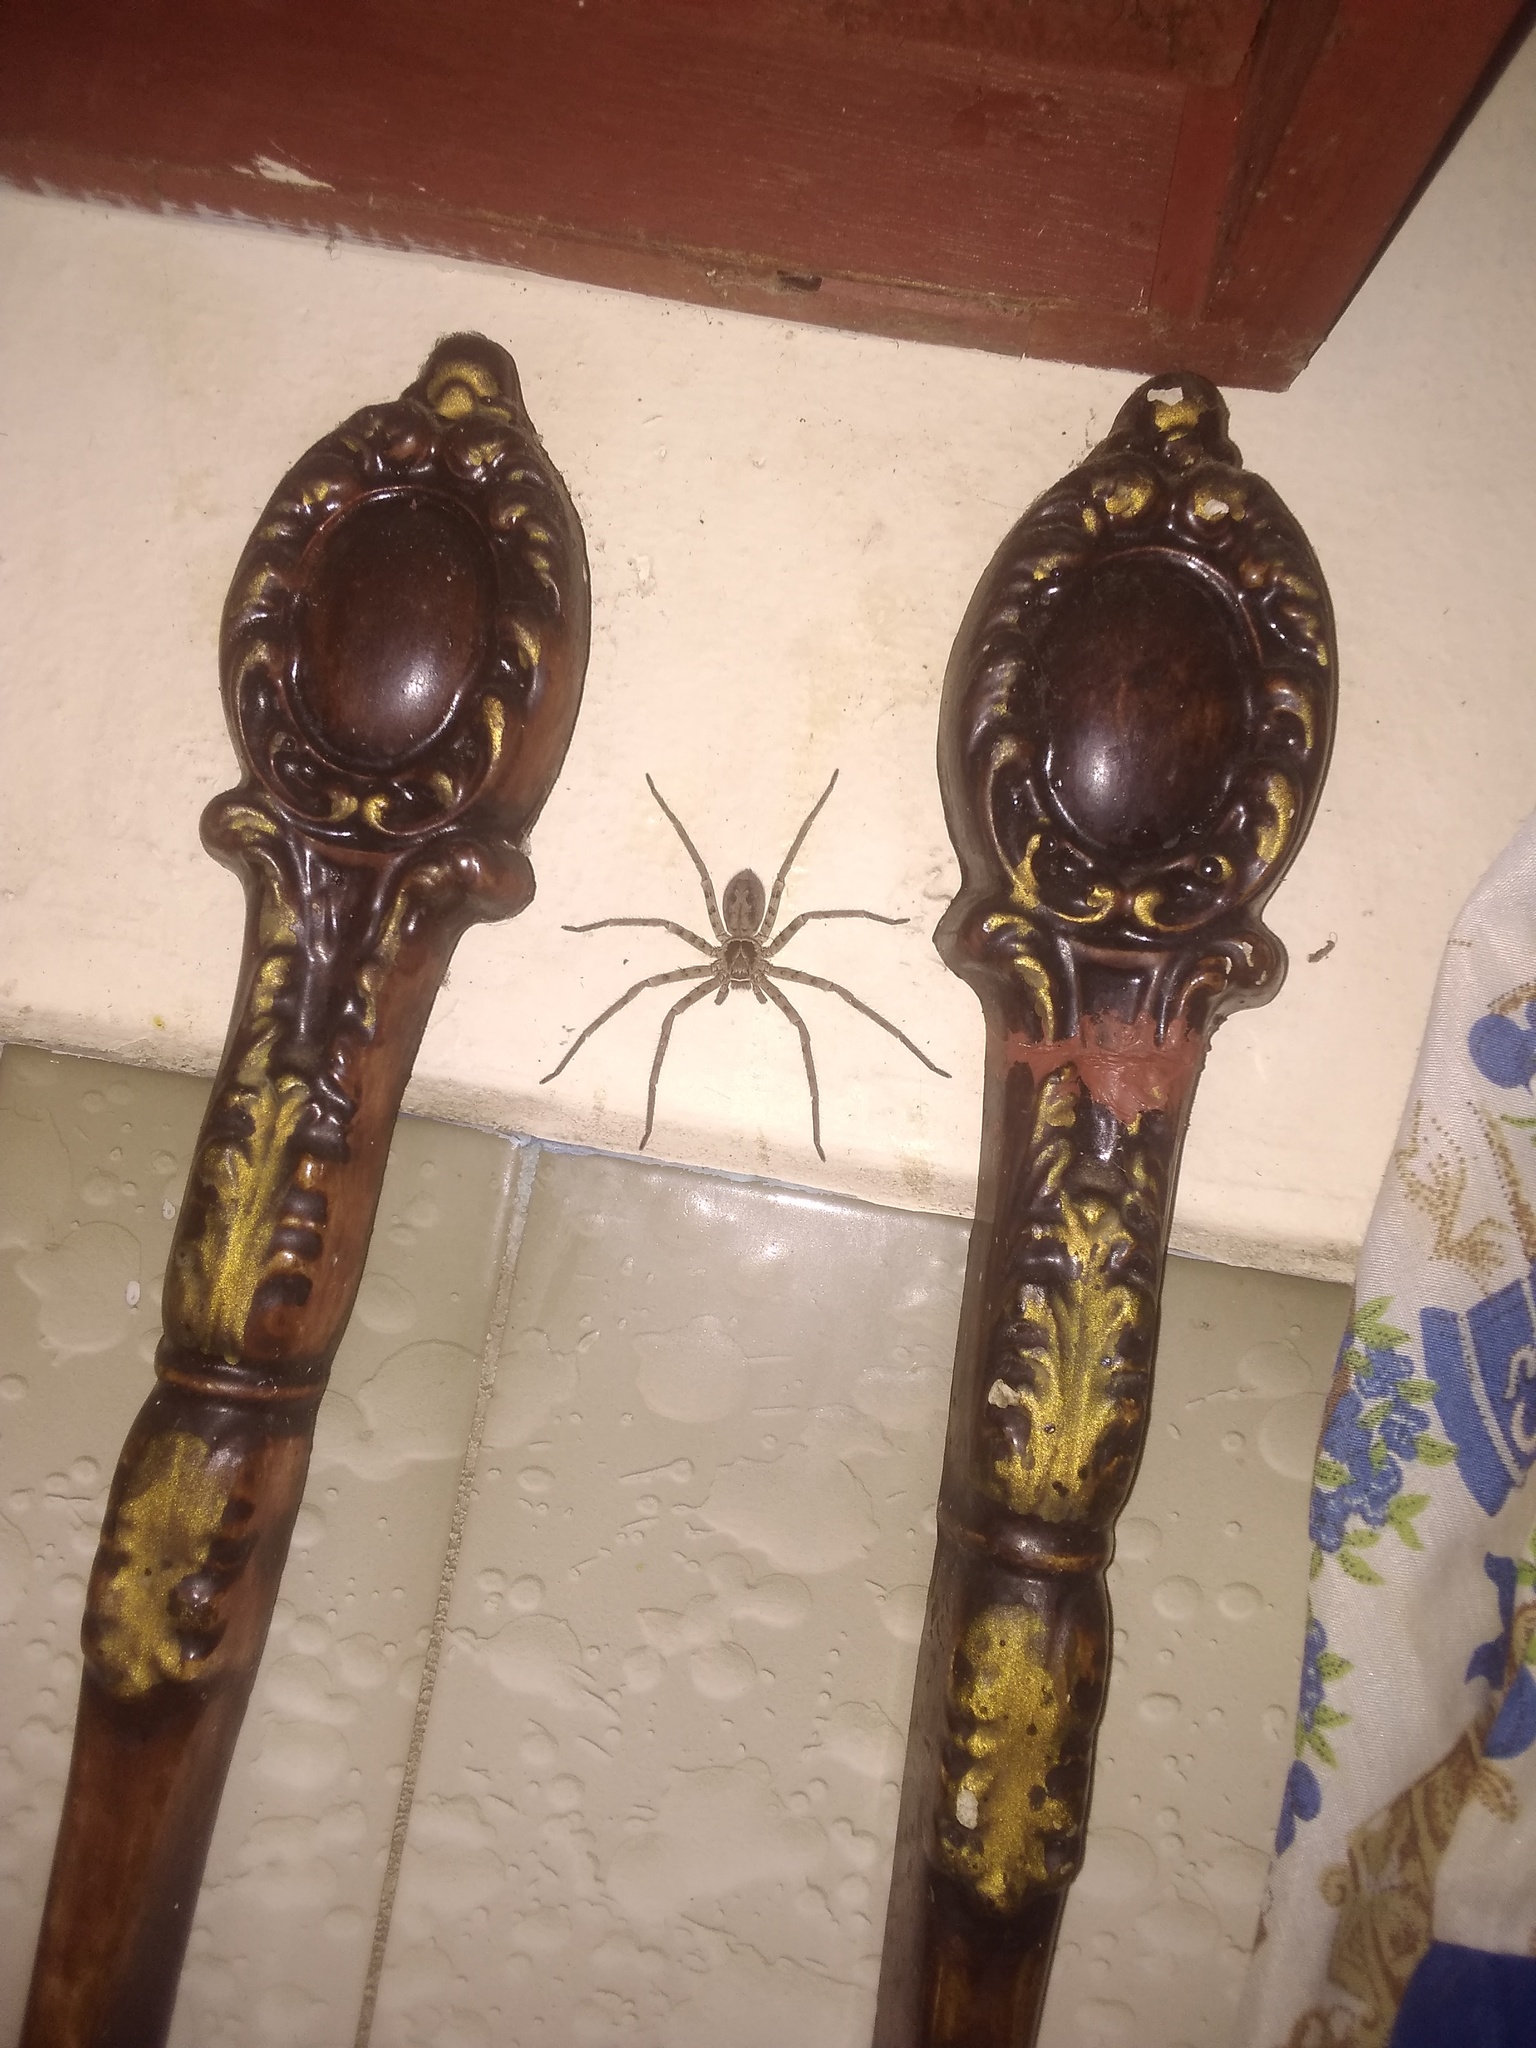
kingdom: Animalia
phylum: Arthropoda
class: Arachnida
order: Araneae
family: Sparassidae
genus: Heteropoda
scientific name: Heteropoda venatoria
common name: Huntsman spider
